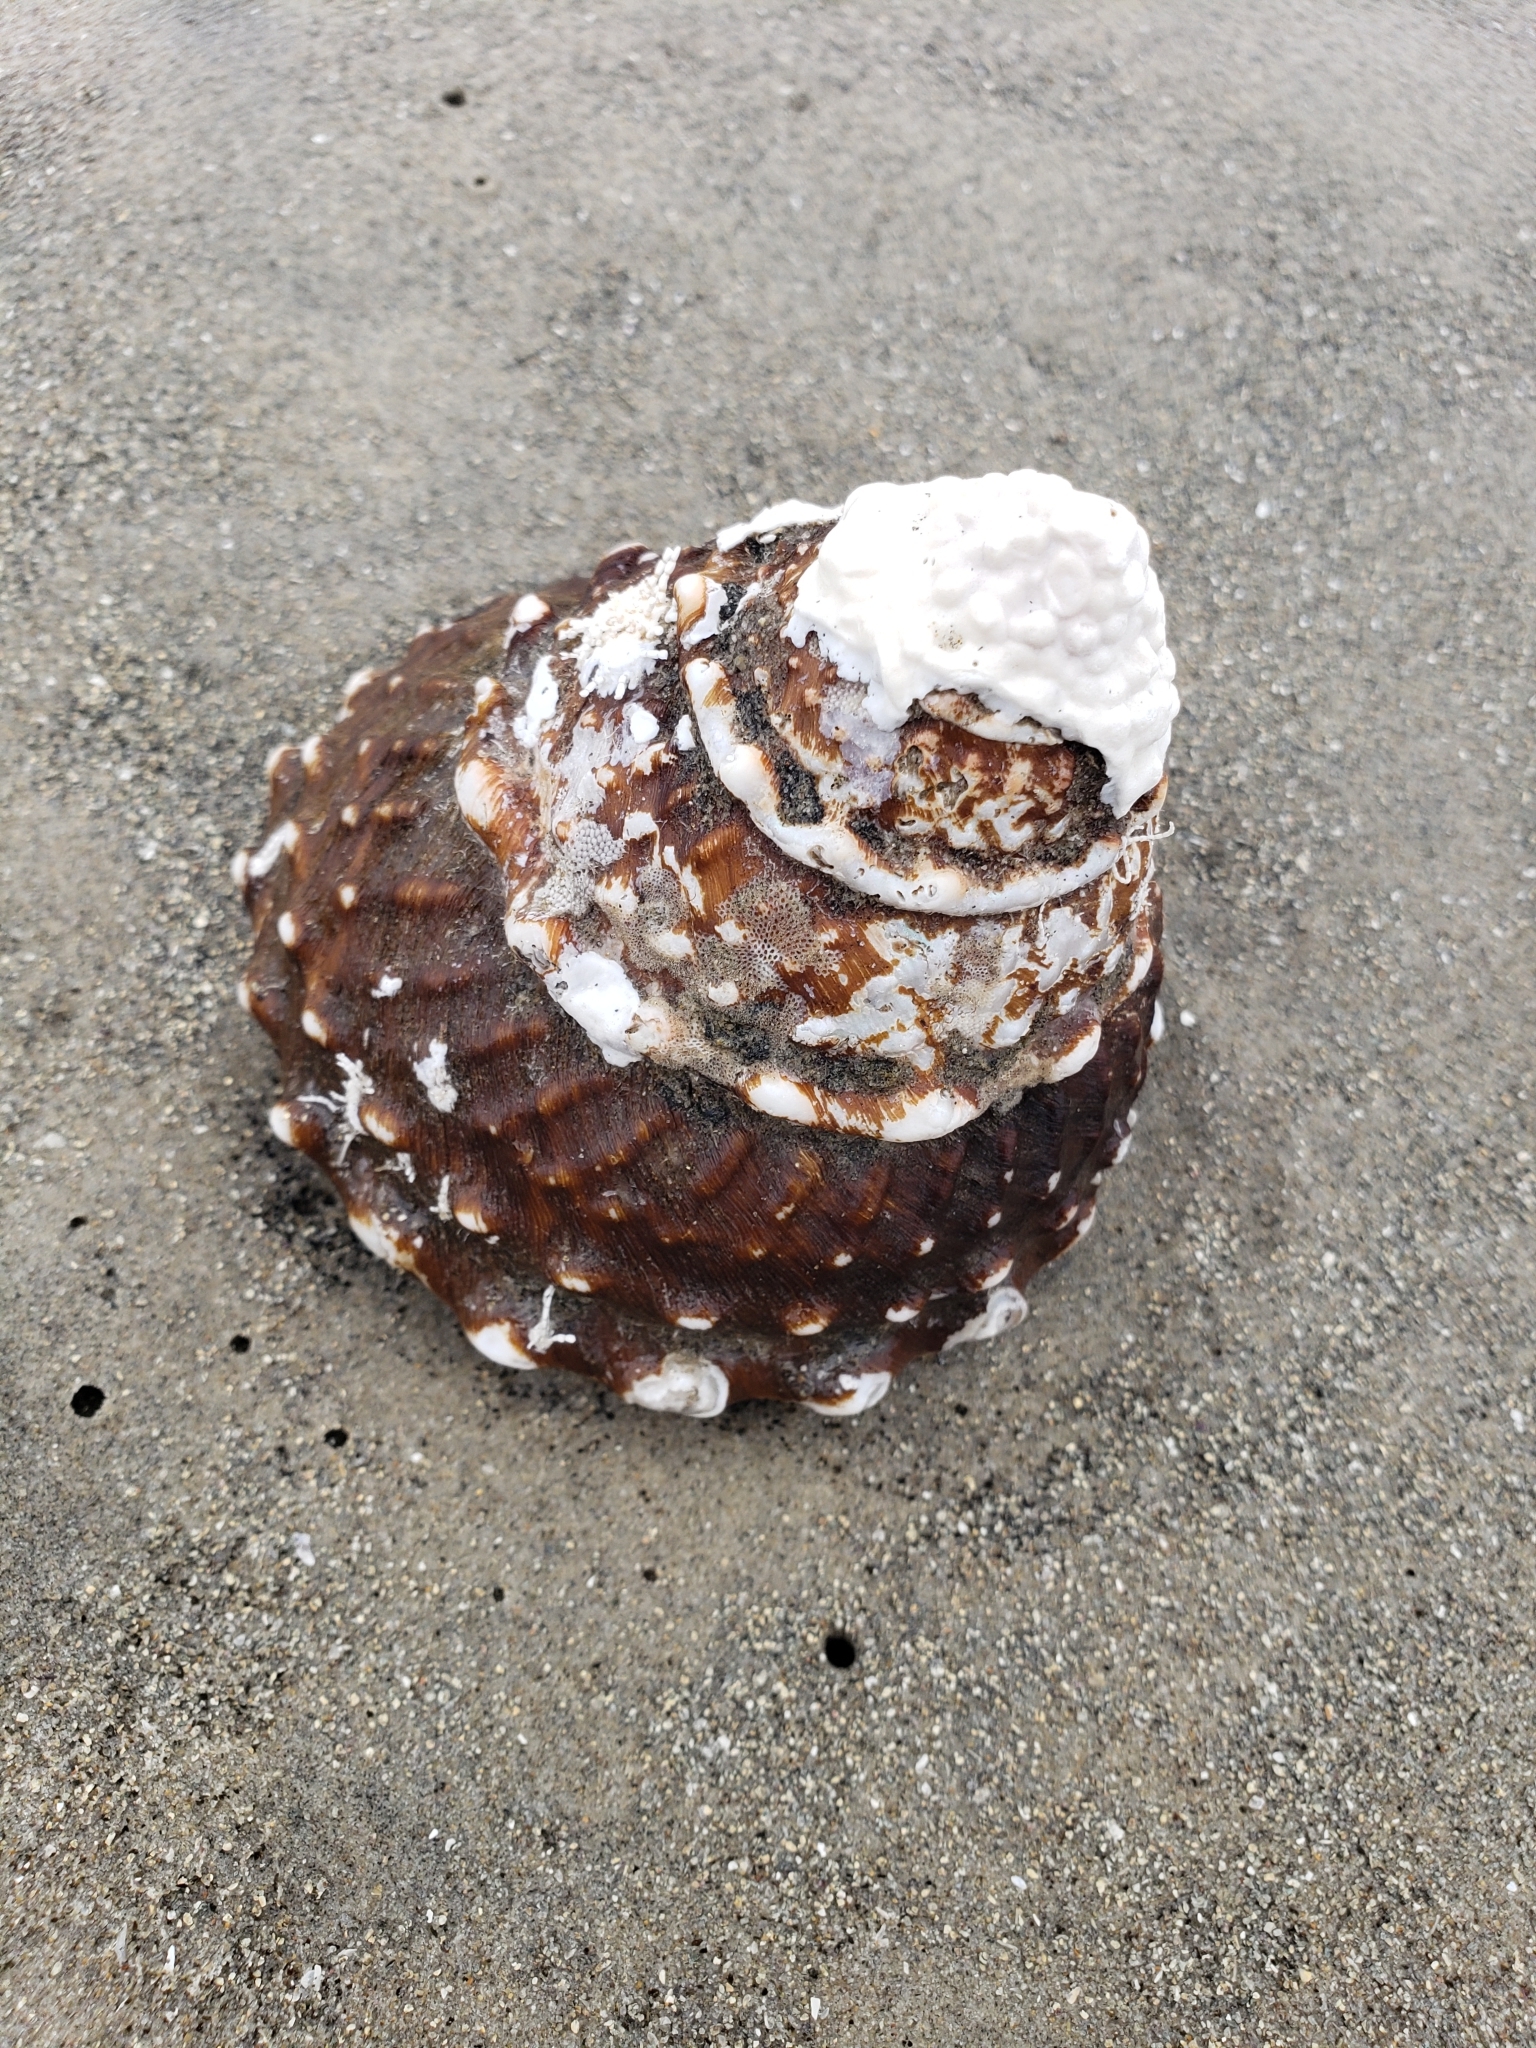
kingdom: Animalia
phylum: Mollusca
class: Gastropoda
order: Trochida
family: Turbinidae
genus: Megastraea
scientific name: Megastraea undosa
